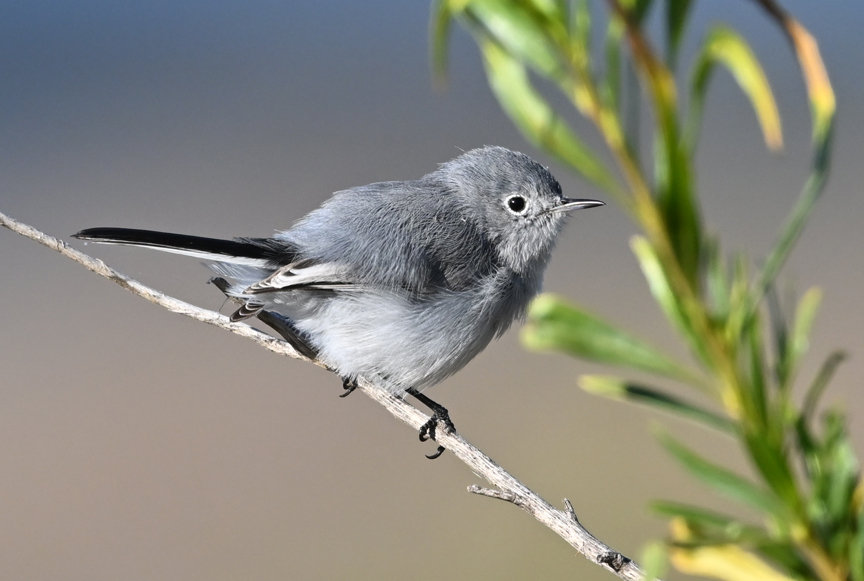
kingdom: Animalia
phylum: Chordata
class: Aves
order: Passeriformes
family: Polioptilidae
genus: Polioptila
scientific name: Polioptila caerulea
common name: Blue-gray gnatcatcher
